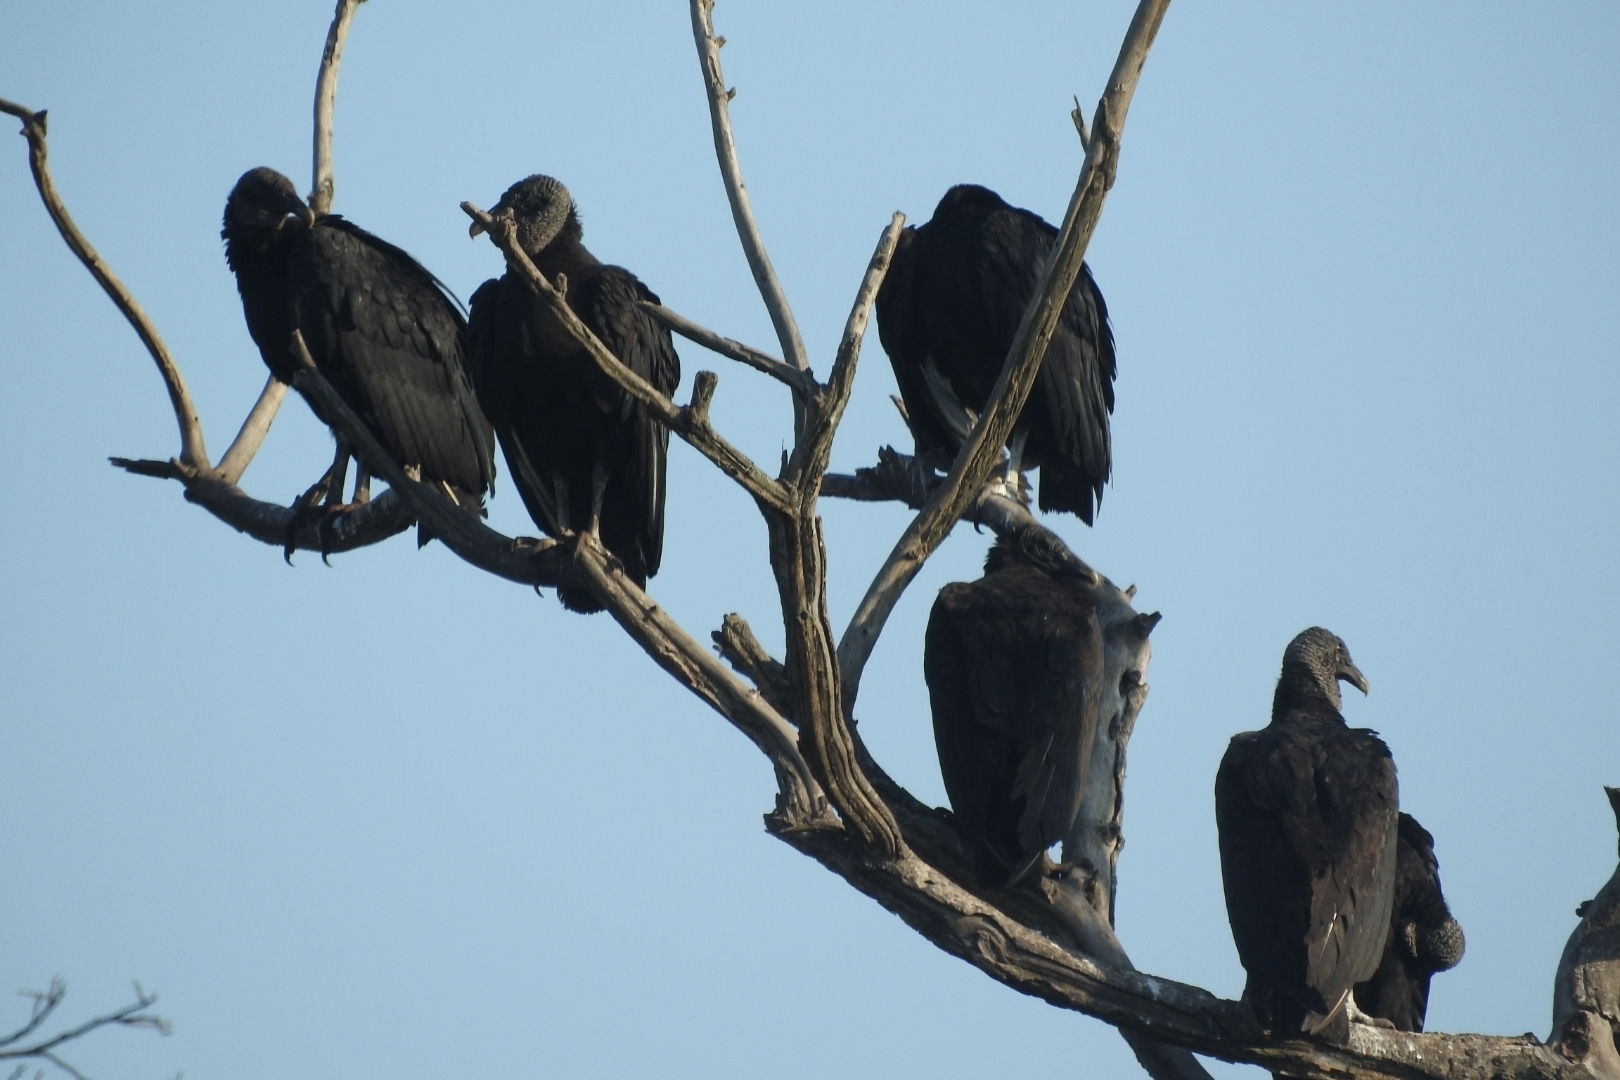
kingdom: Animalia
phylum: Chordata
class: Aves
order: Accipitriformes
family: Cathartidae
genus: Coragyps
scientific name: Coragyps atratus
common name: Black vulture
